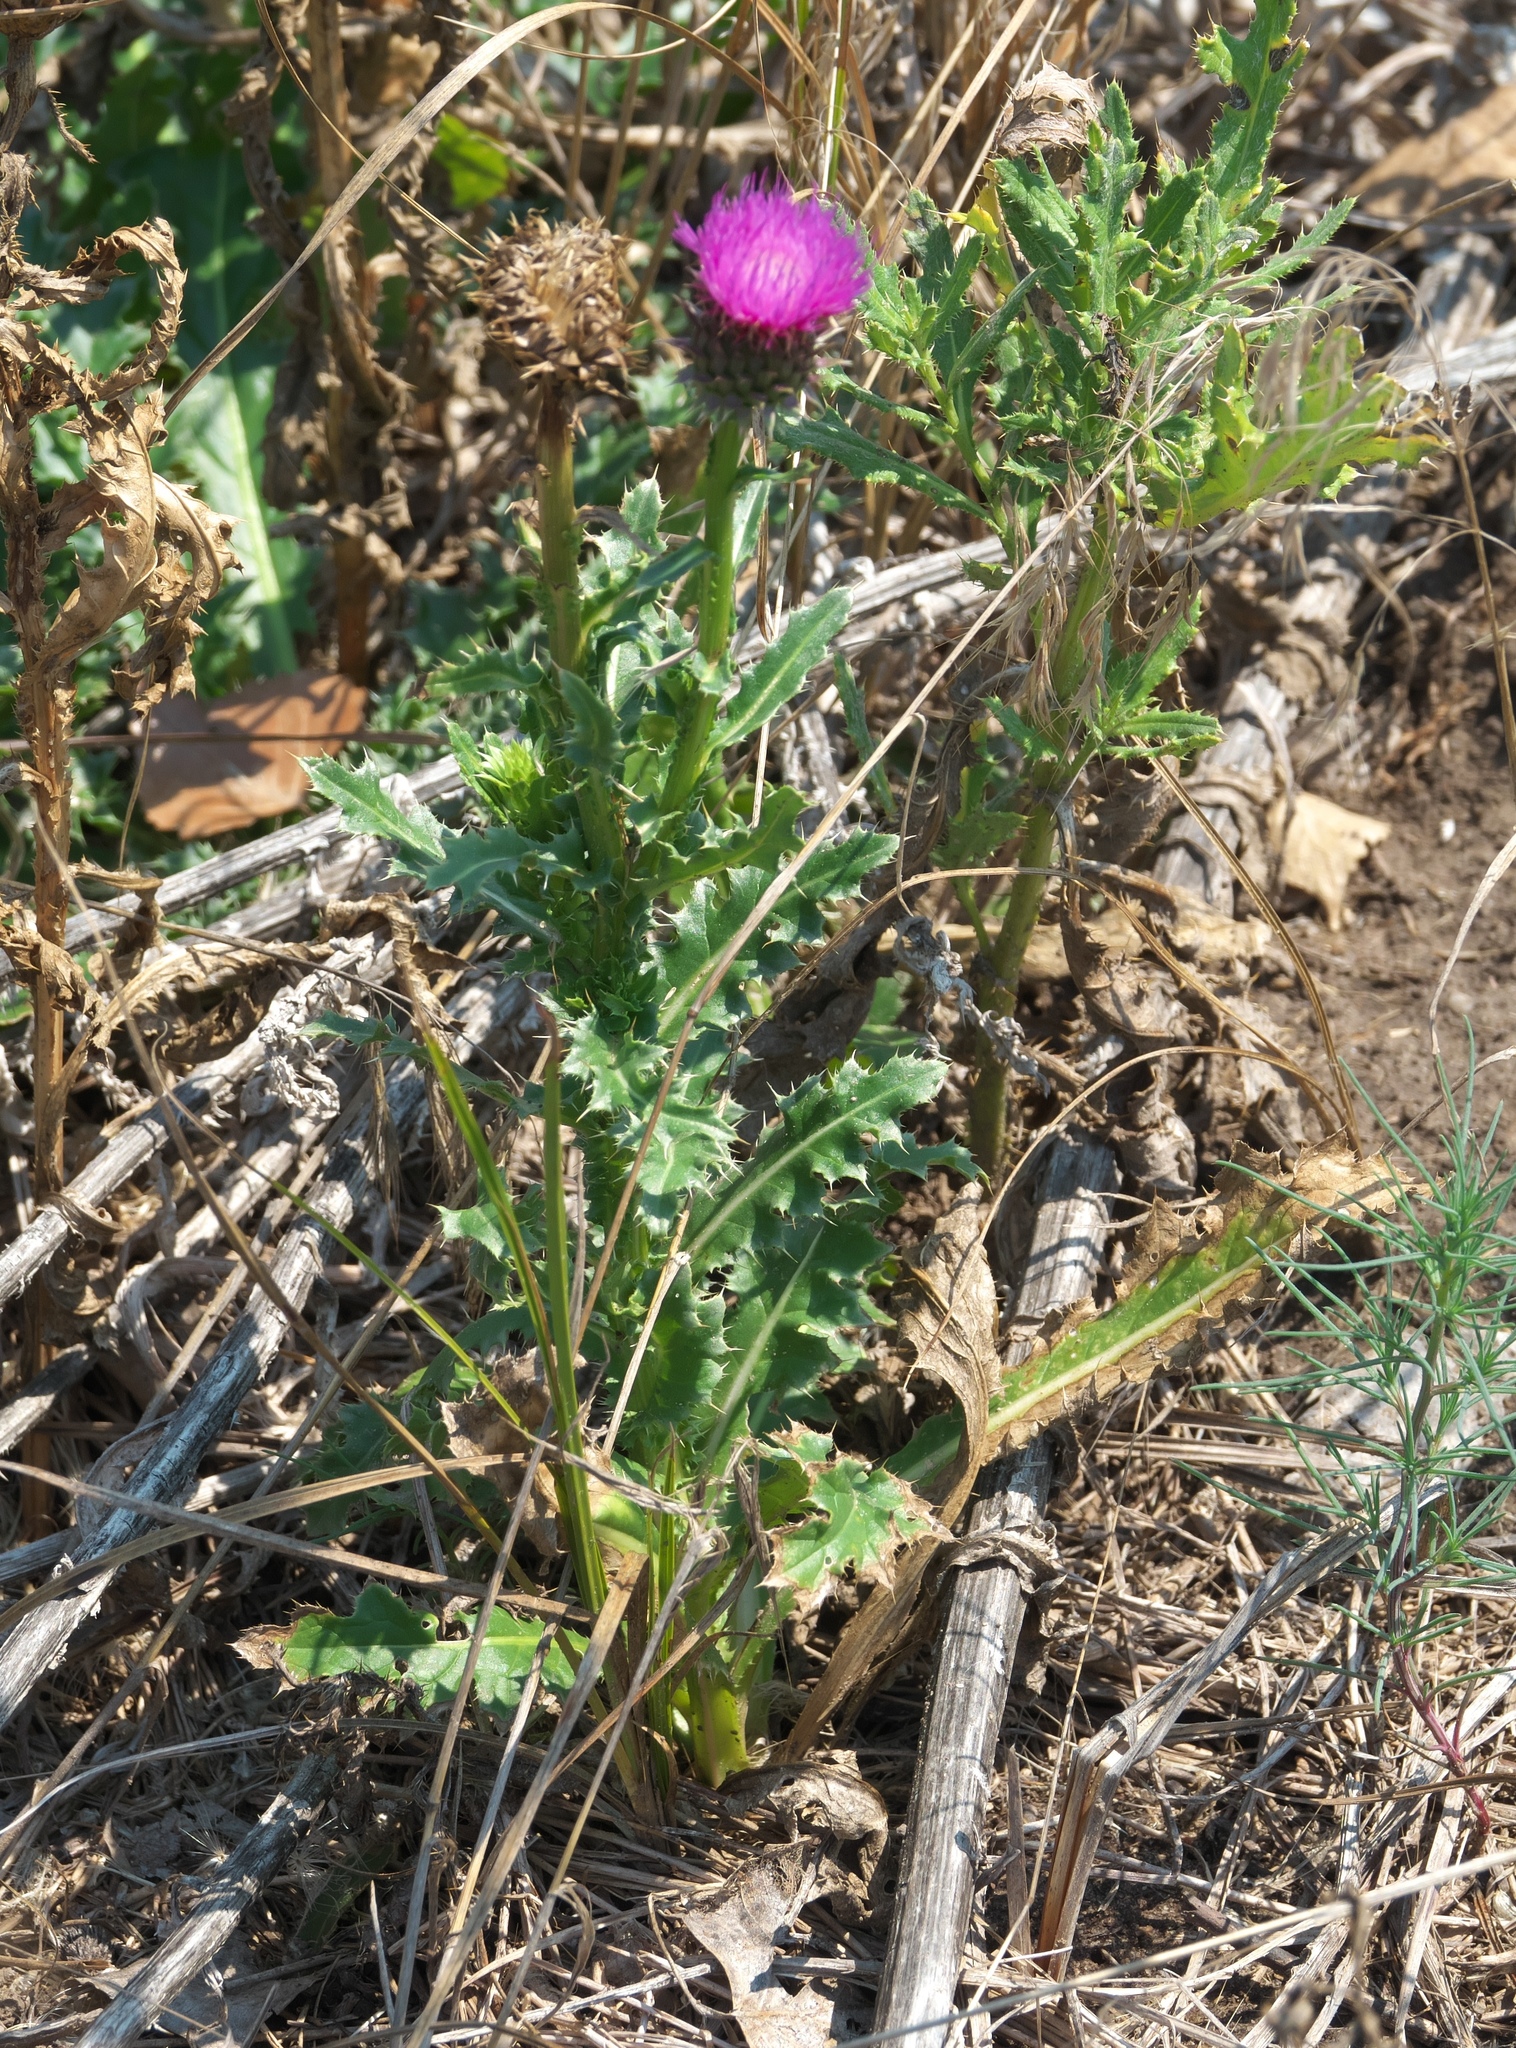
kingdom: Plantae
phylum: Tracheophyta
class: Magnoliopsida
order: Asterales
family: Asteraceae
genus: Carduus
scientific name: Carduus nutans
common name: Musk thistle
